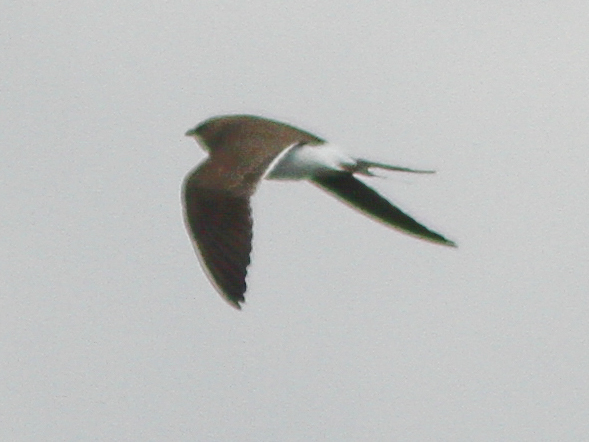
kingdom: Animalia
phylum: Chordata
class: Aves
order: Charadriiformes
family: Glareolidae
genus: Glareola
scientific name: Glareola pratincola
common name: Collared pratincole
